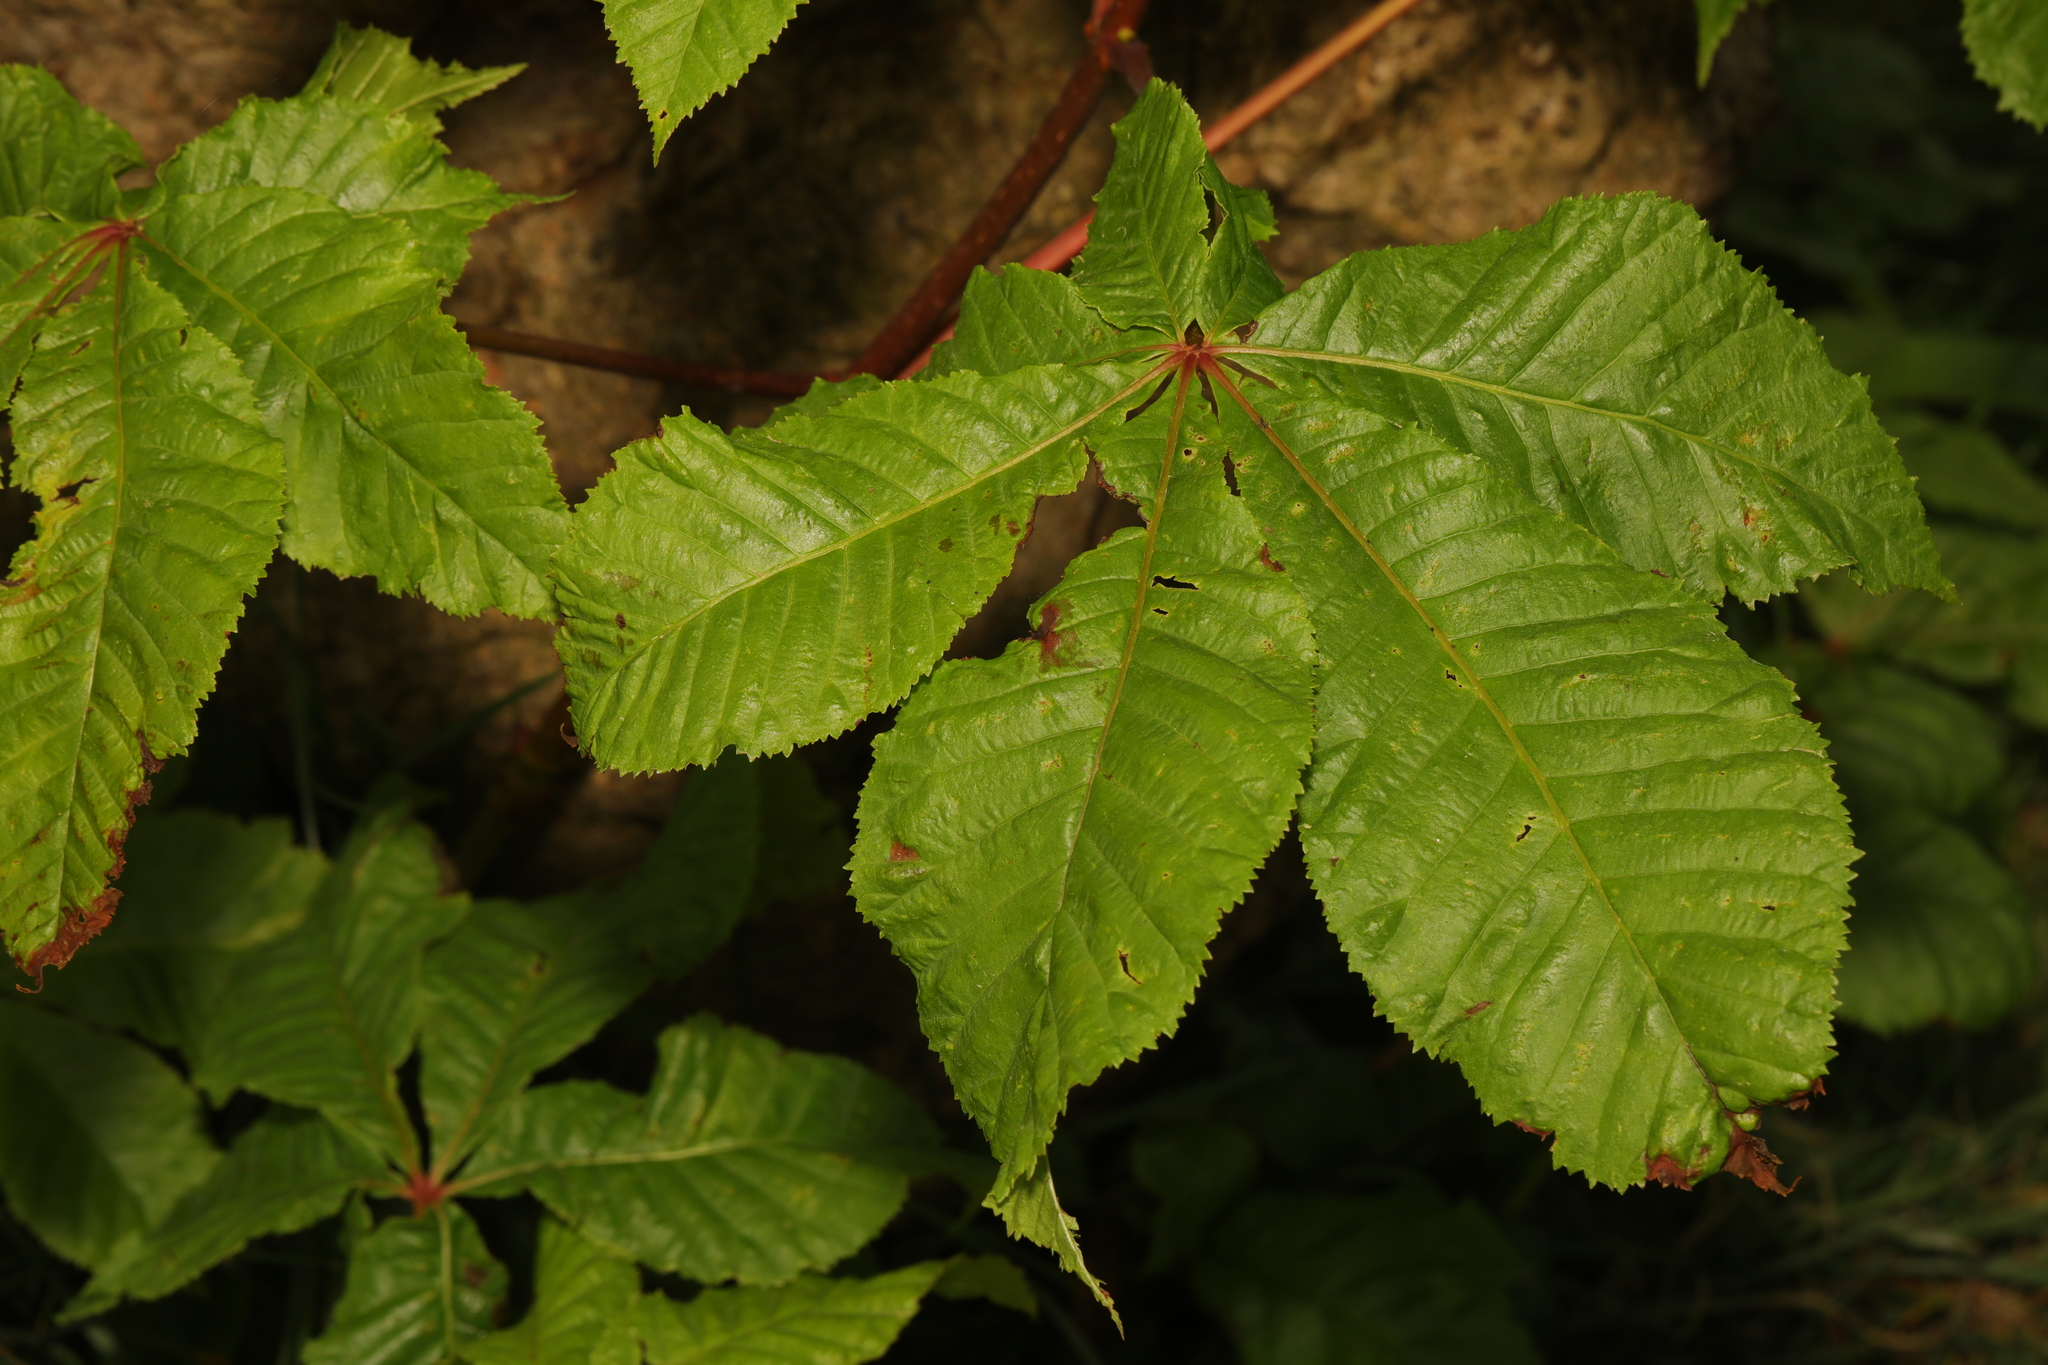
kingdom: Plantae
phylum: Tracheophyta
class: Magnoliopsida
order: Sapindales
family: Sapindaceae
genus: Aesculus
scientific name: Aesculus carnea
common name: Red horse-chestnut
